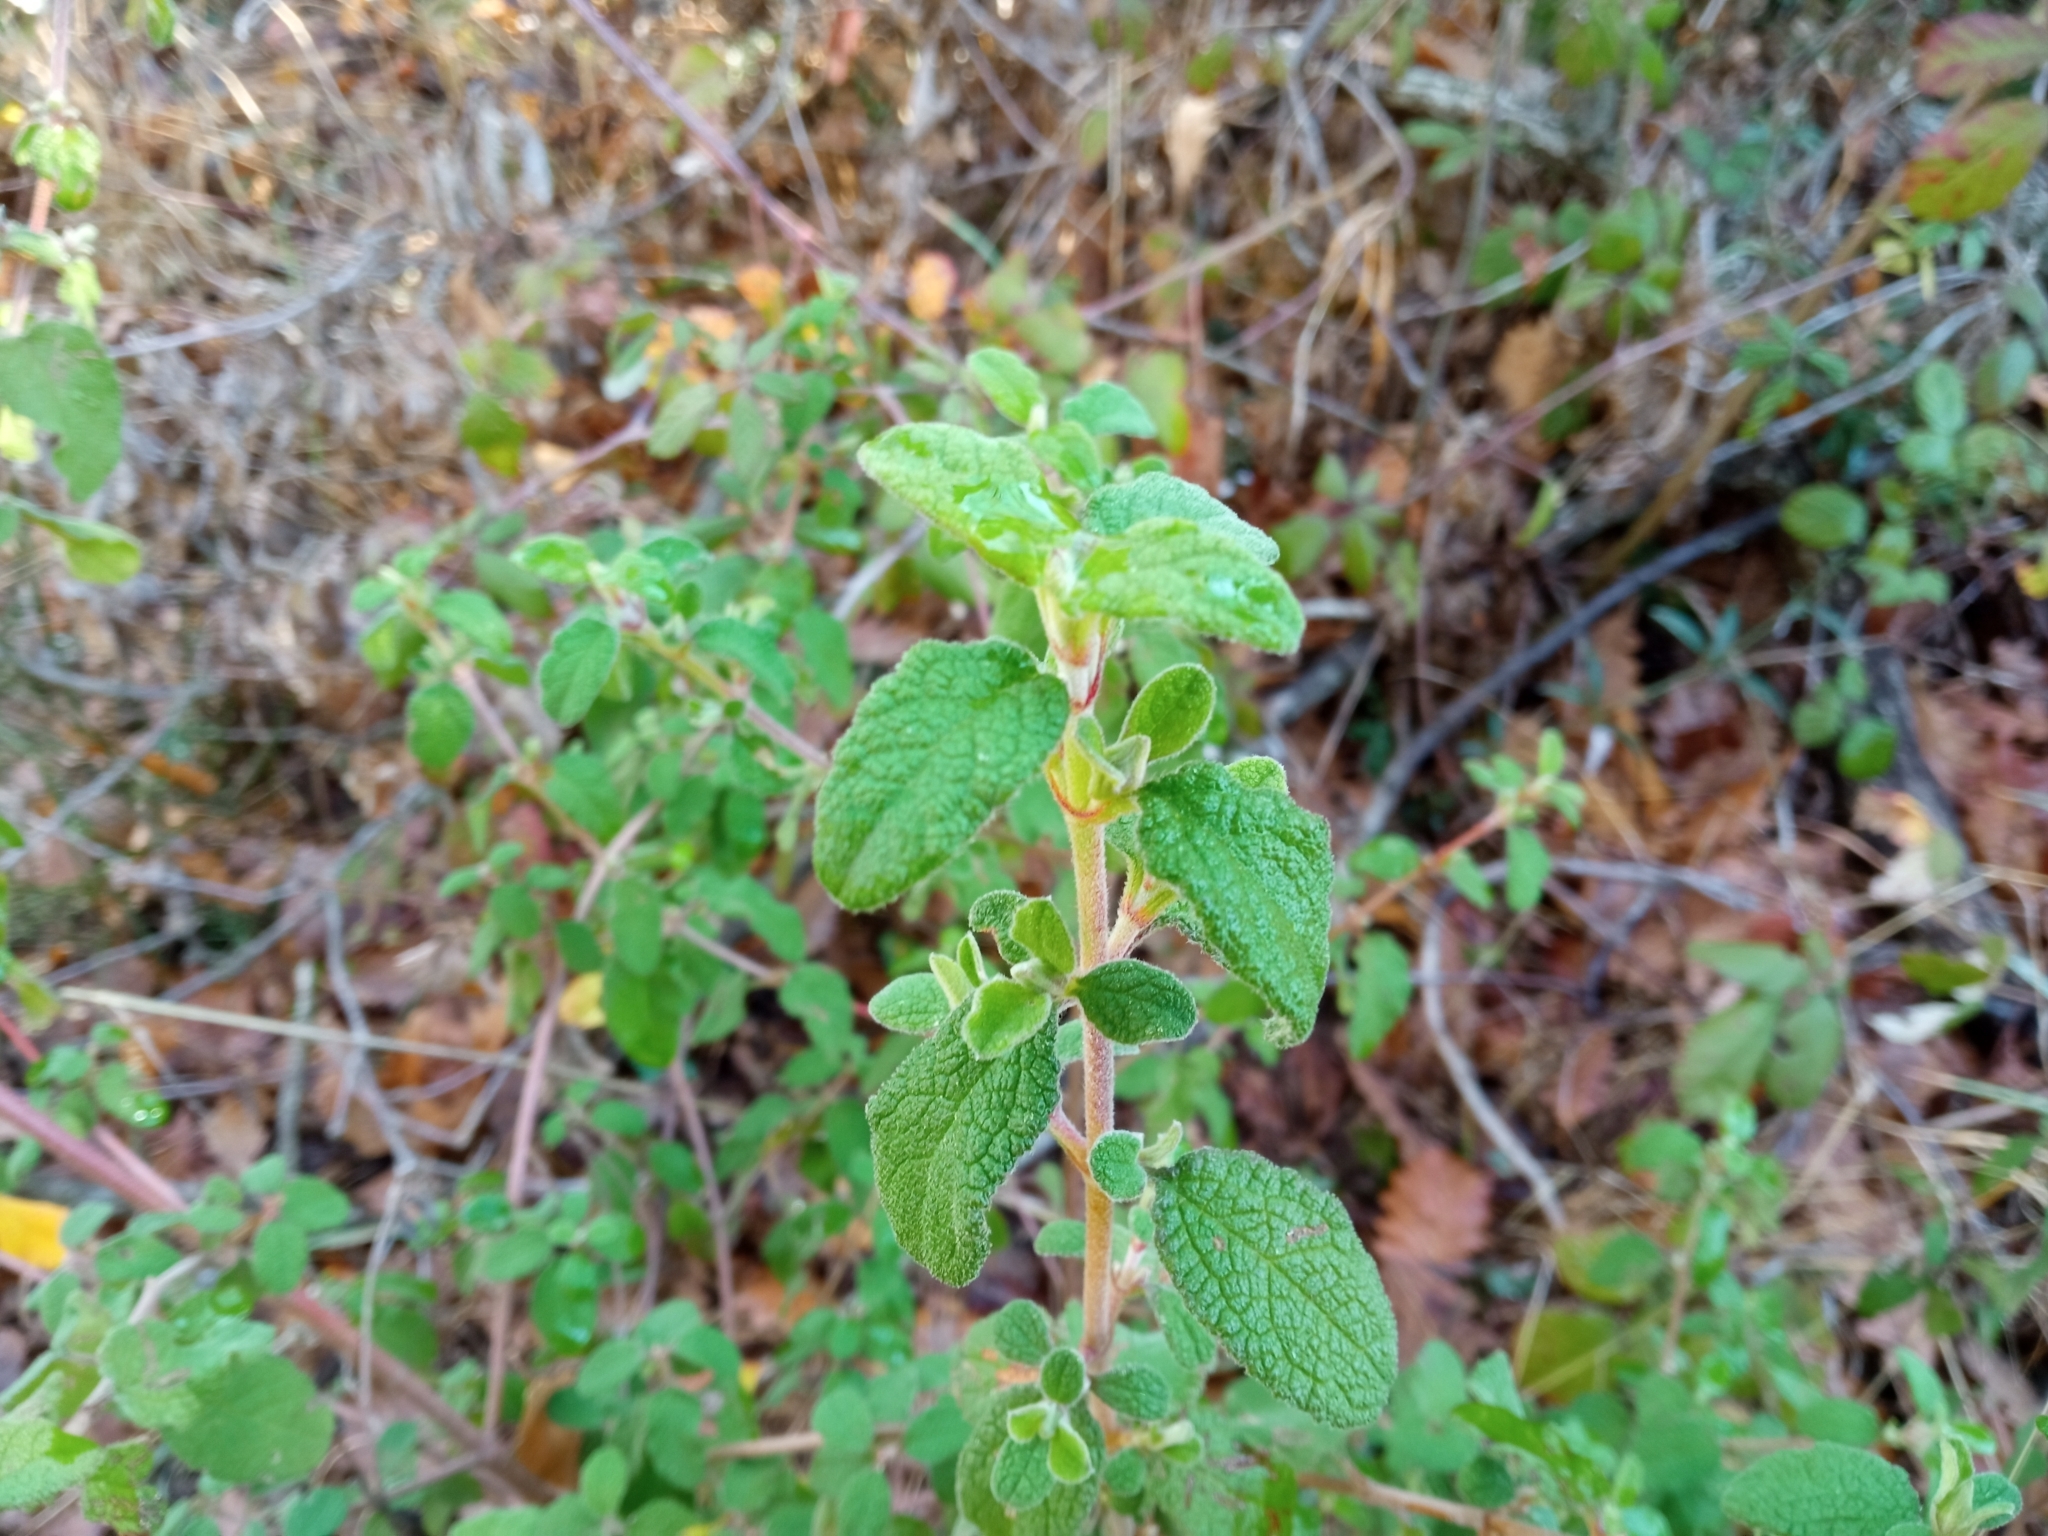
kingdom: Plantae
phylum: Tracheophyta
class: Magnoliopsida
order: Malvales
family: Cistaceae
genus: Cistus
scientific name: Cistus salviifolius
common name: Salvia cistus
